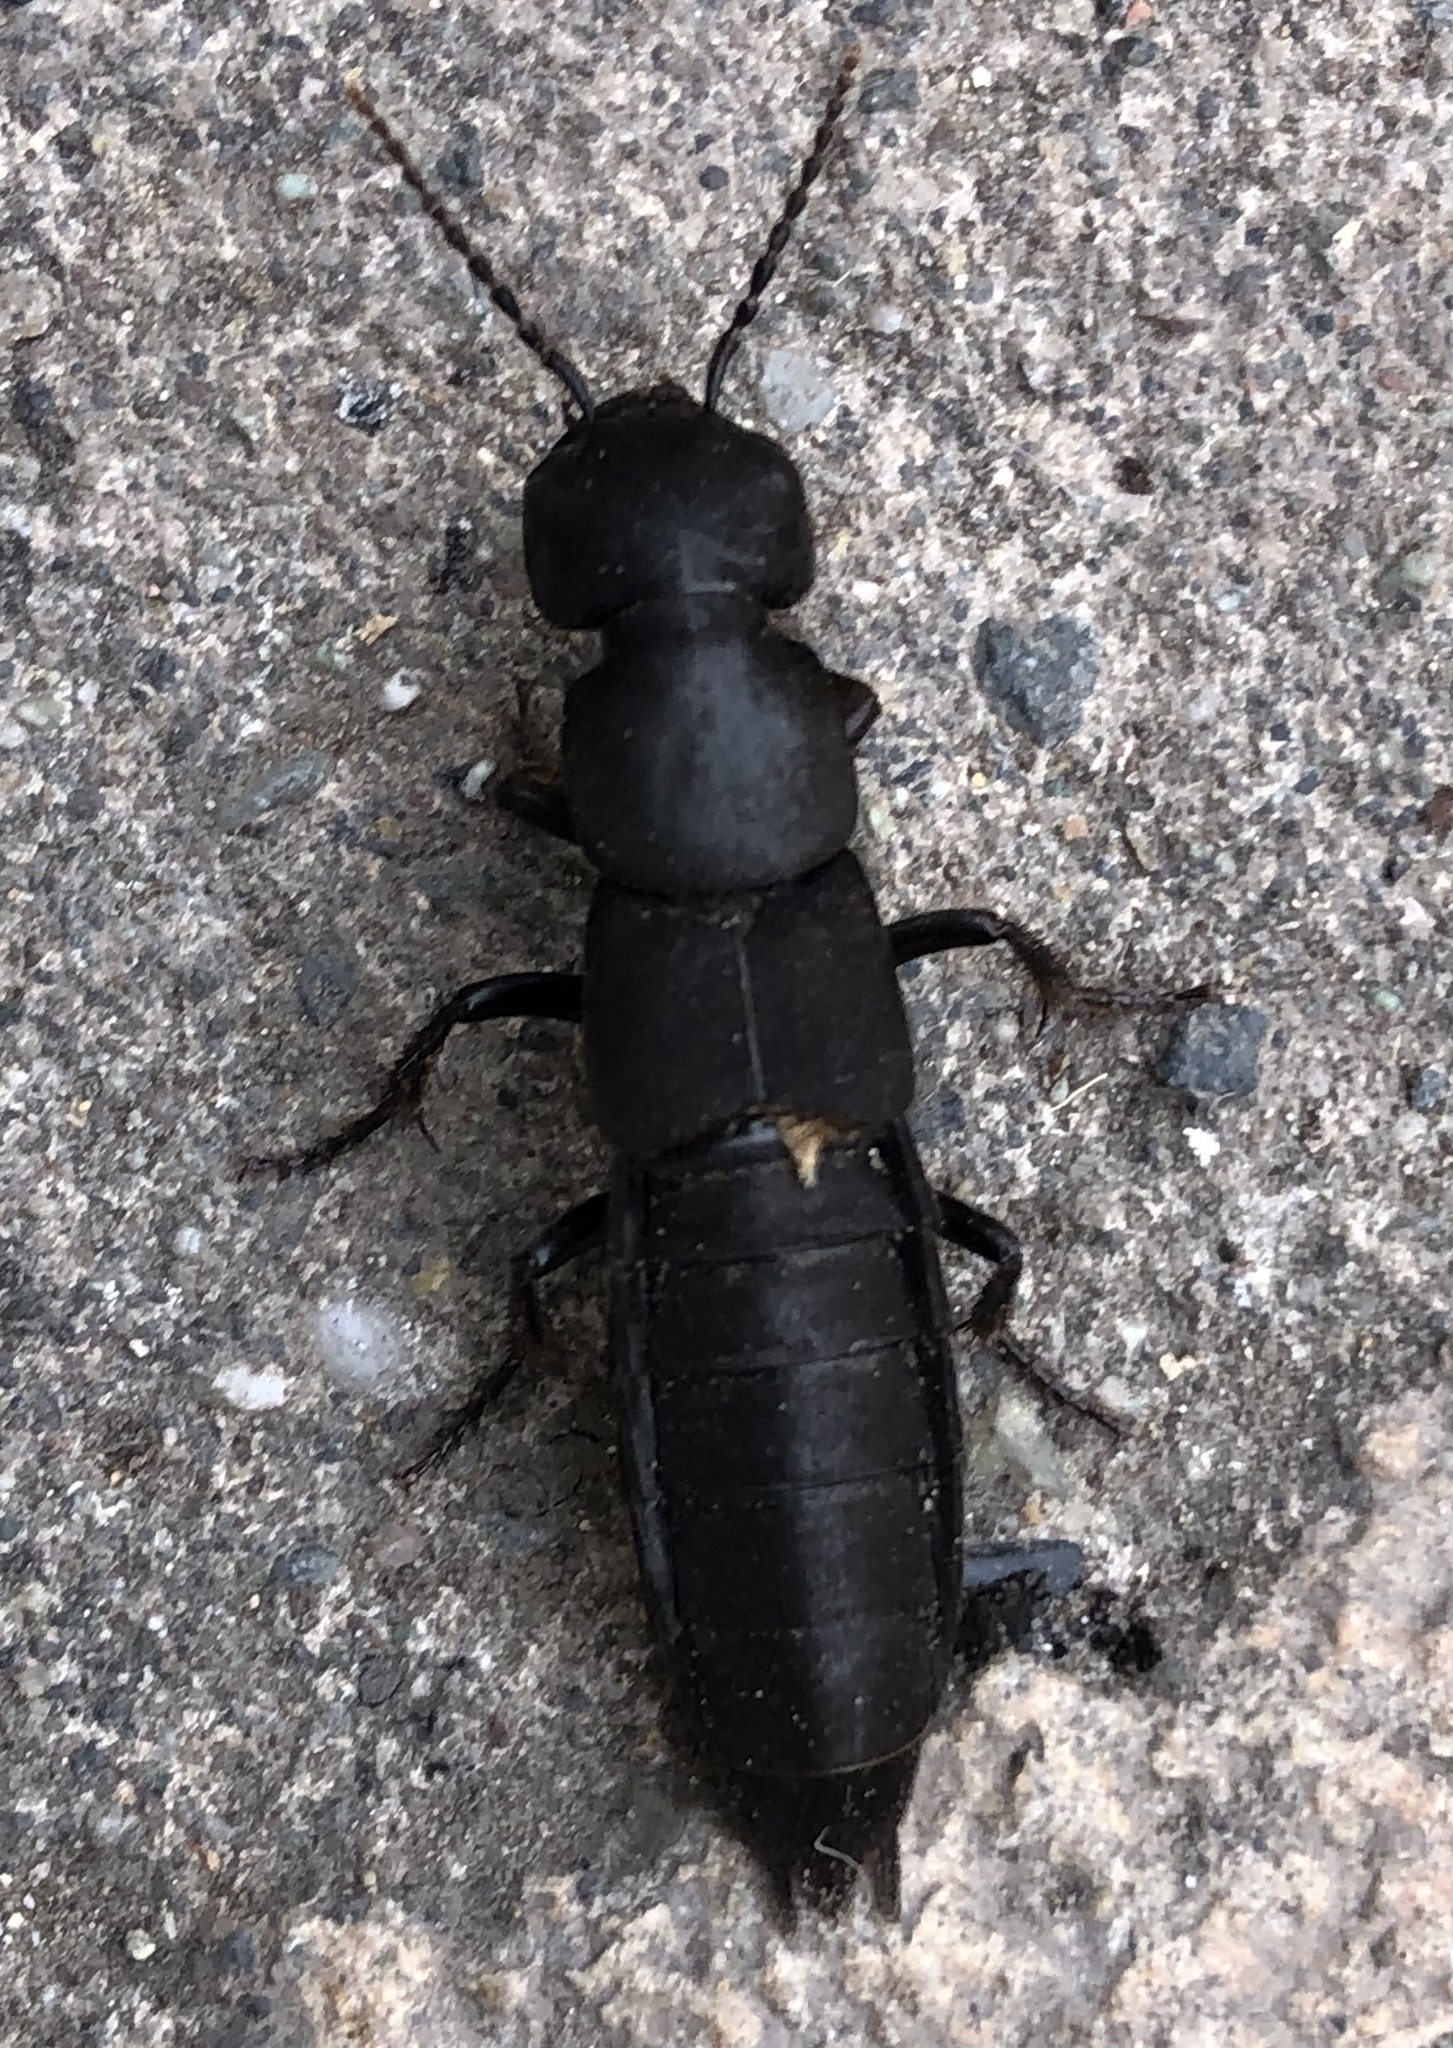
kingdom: Animalia
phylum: Arthropoda
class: Insecta
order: Coleoptera
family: Staphylinidae
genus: Ocypus
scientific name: Ocypus olens
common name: Devil's coach-horse
